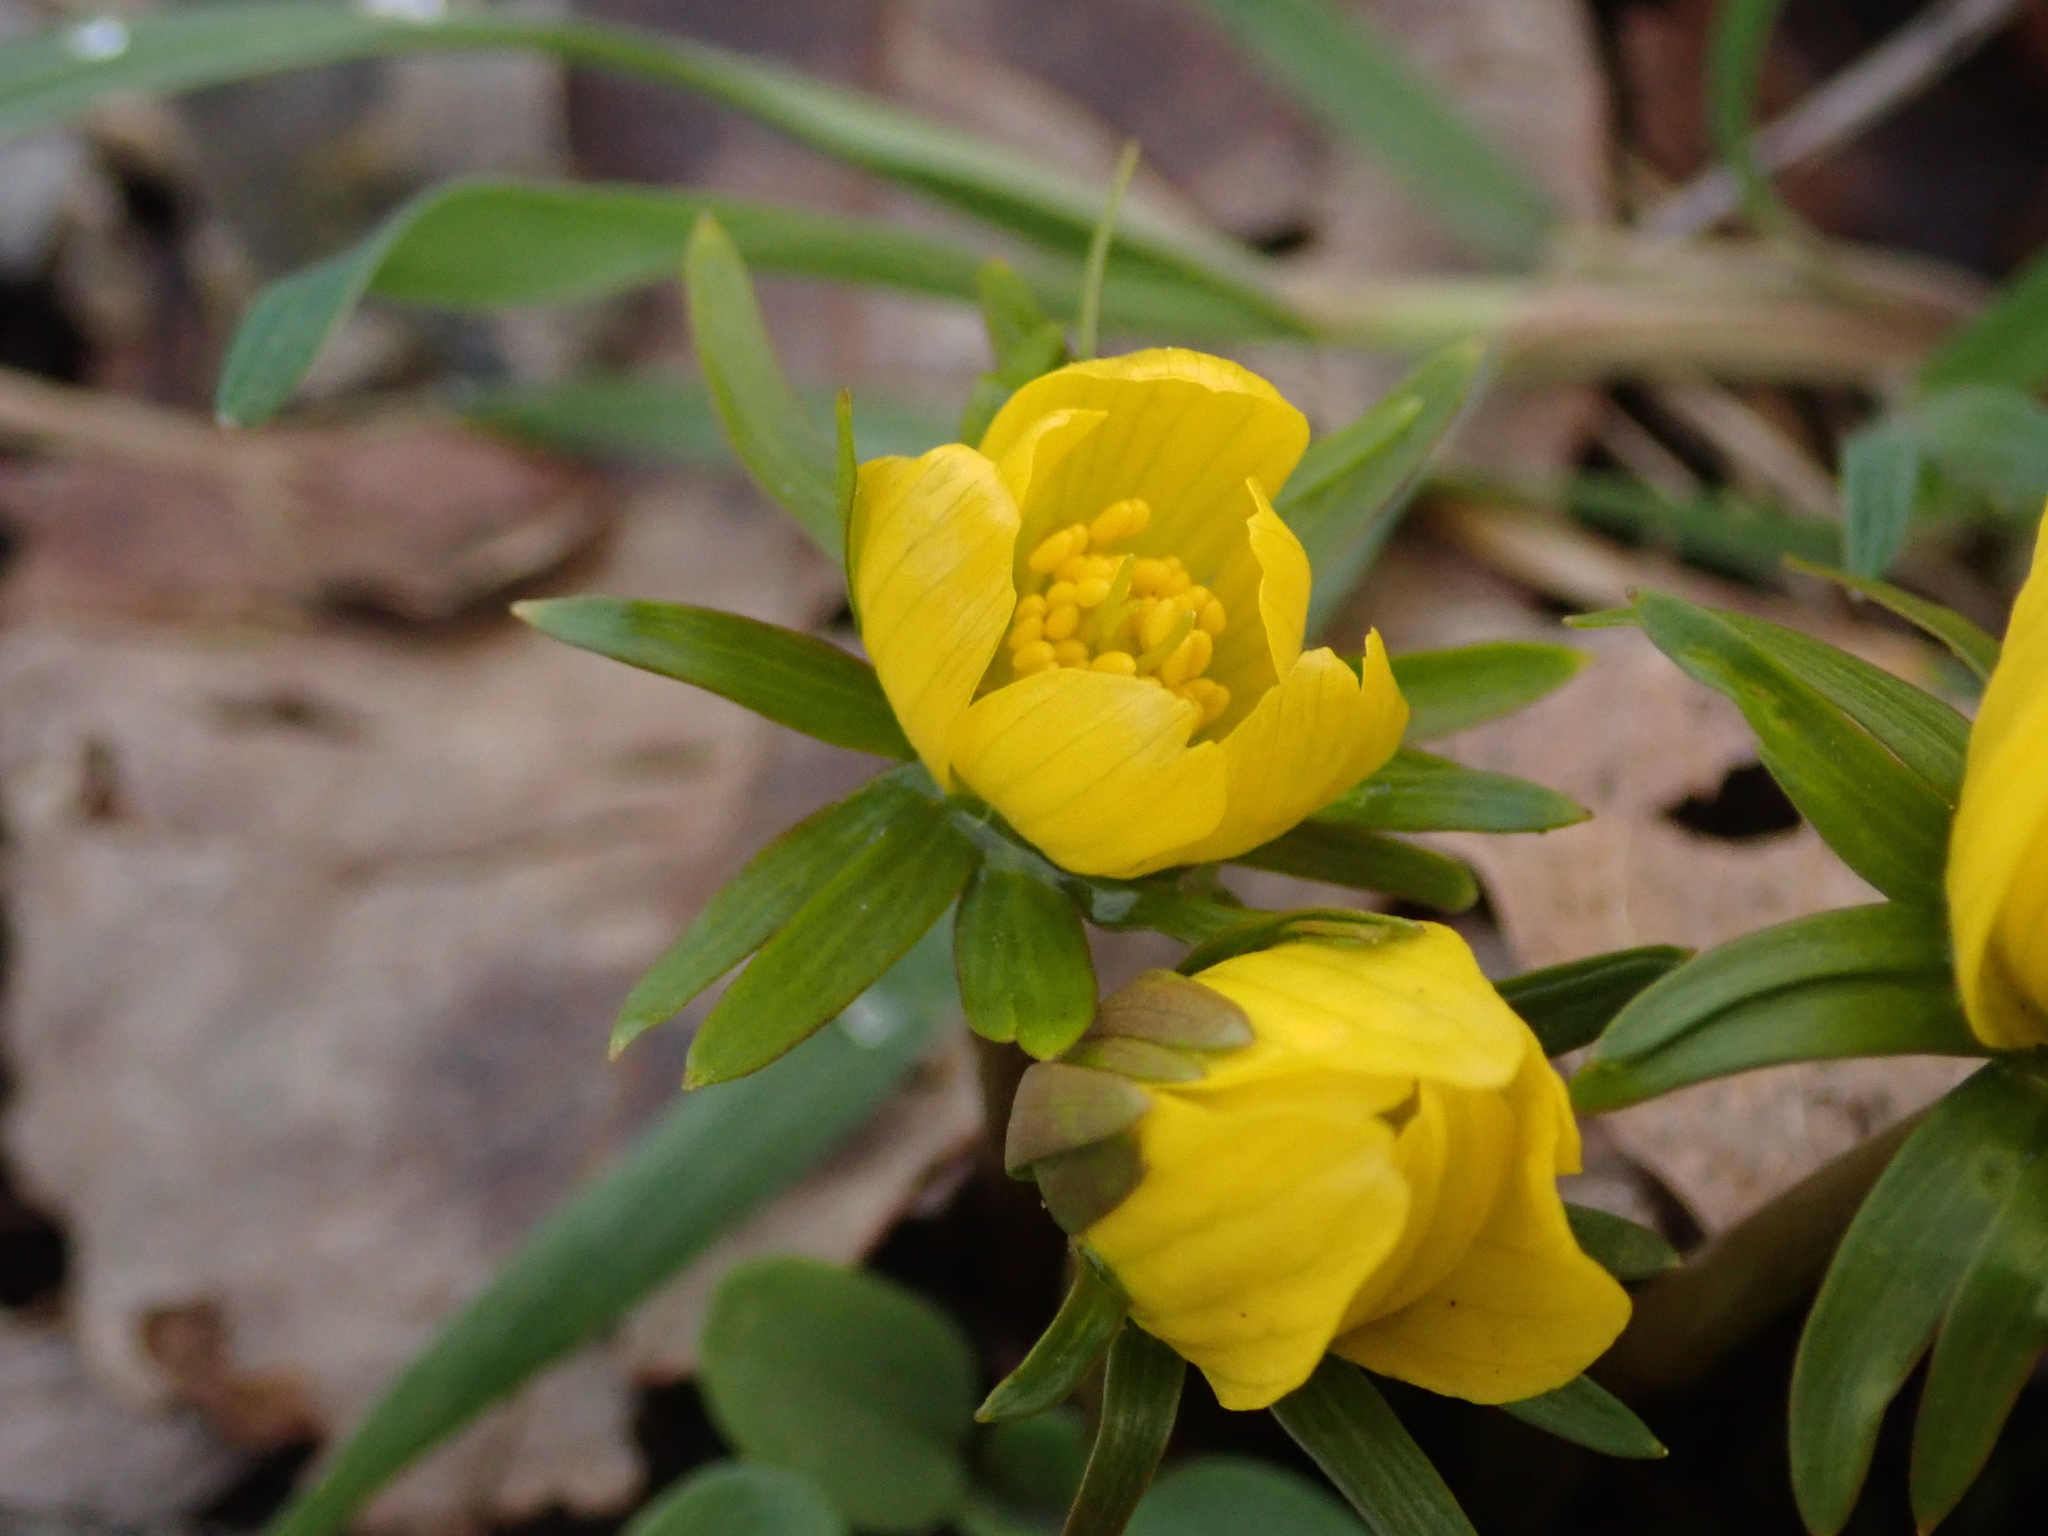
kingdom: Plantae
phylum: Tracheophyta
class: Magnoliopsida
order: Ranunculales
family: Ranunculaceae
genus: Eranthis
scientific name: Eranthis hyemalis
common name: Winter aconite
